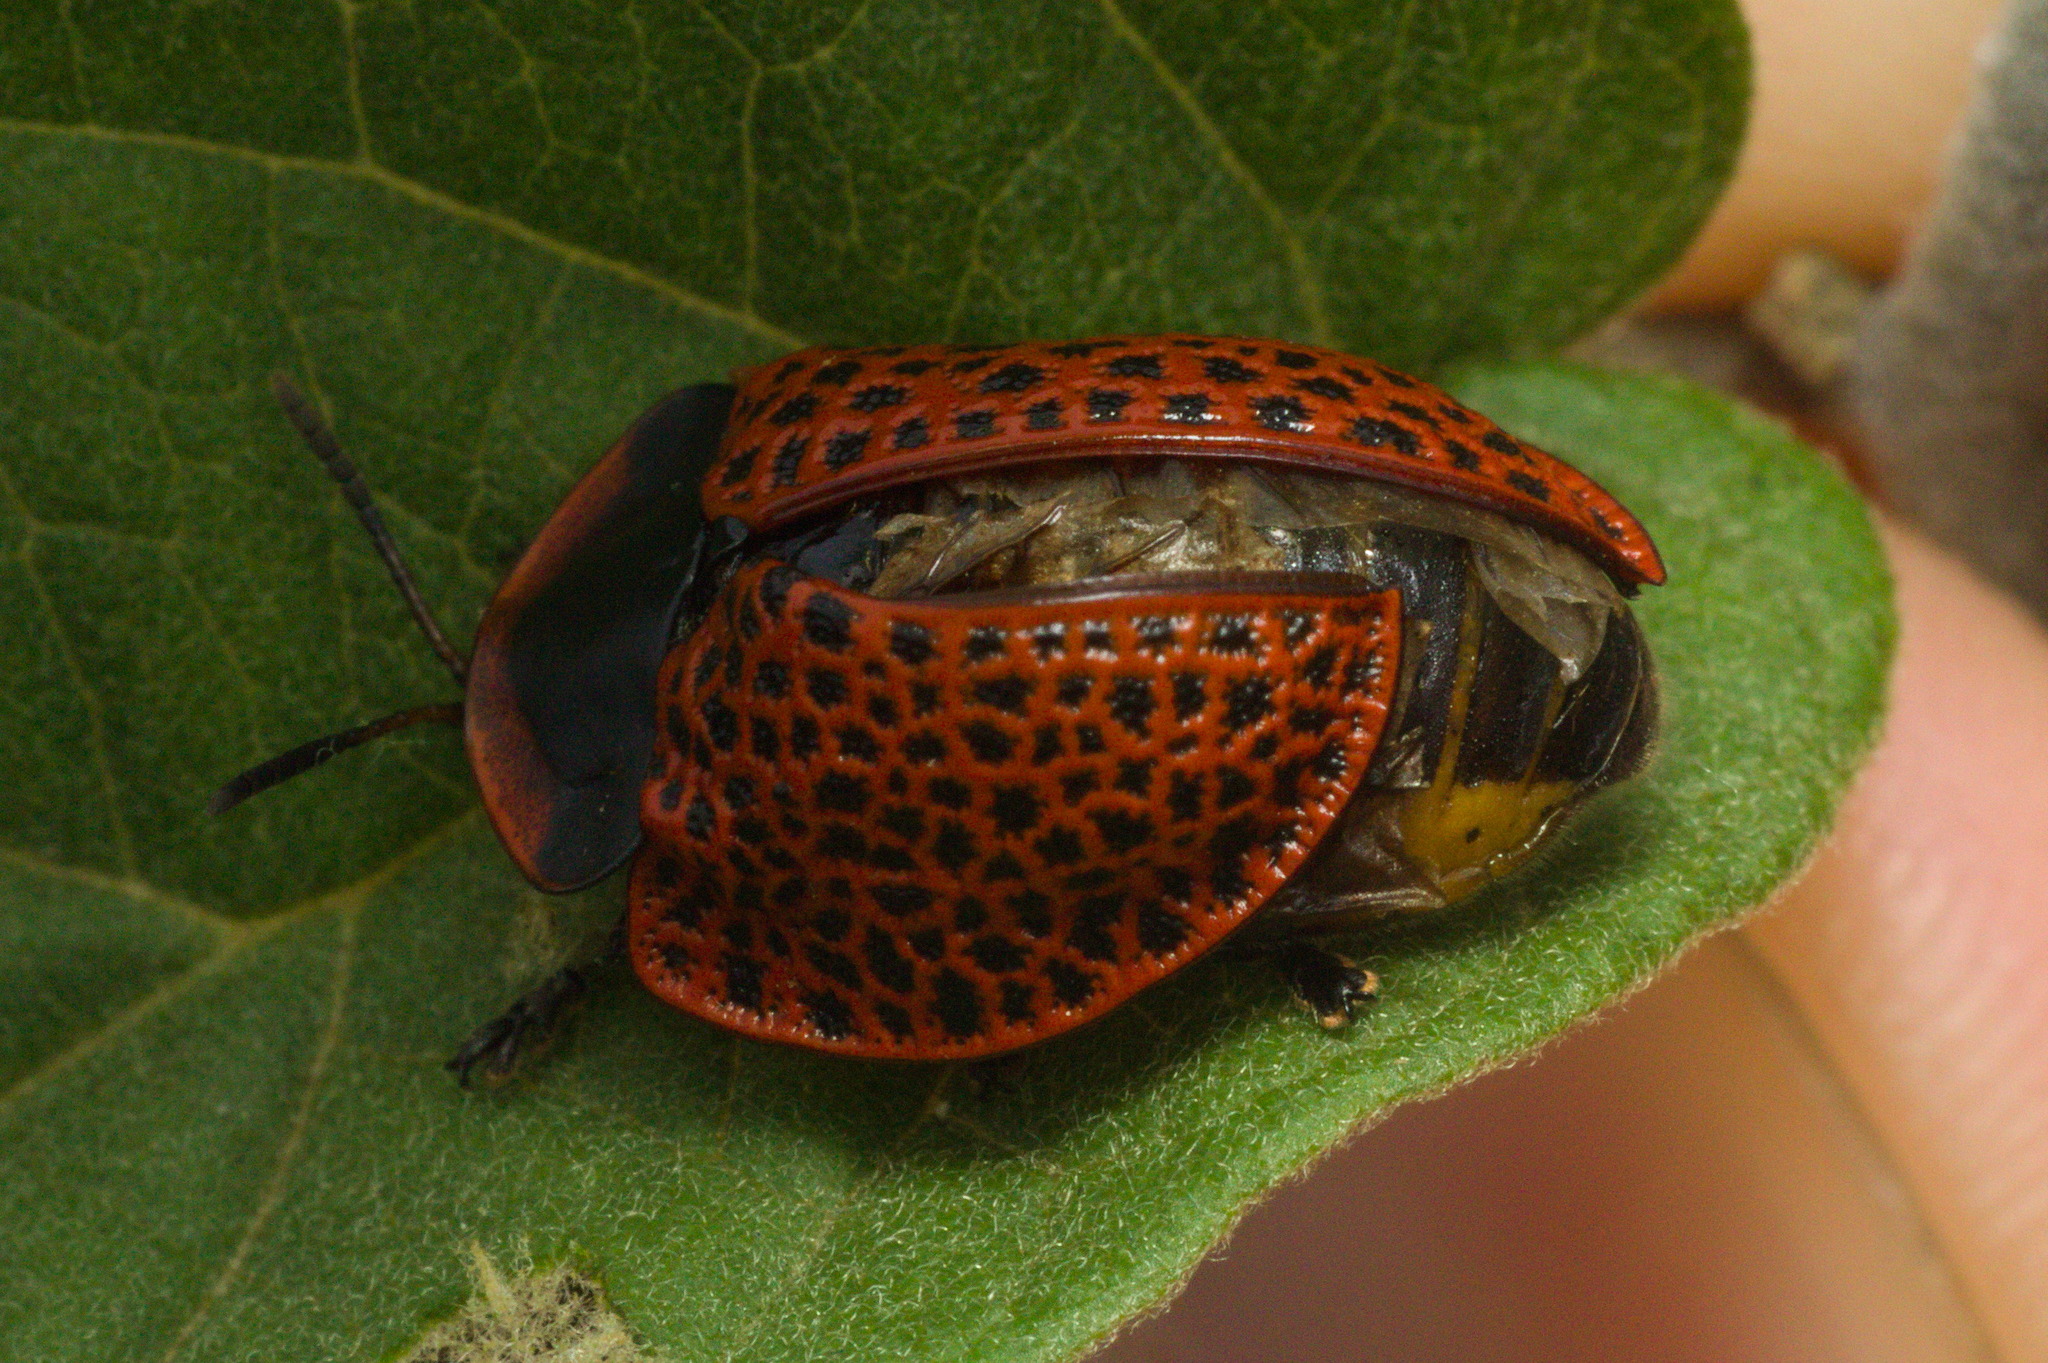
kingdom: Animalia
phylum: Arthropoda
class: Insecta
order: Coleoptera
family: Chrysomelidae
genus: Botanochara
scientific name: Botanochara impressa
